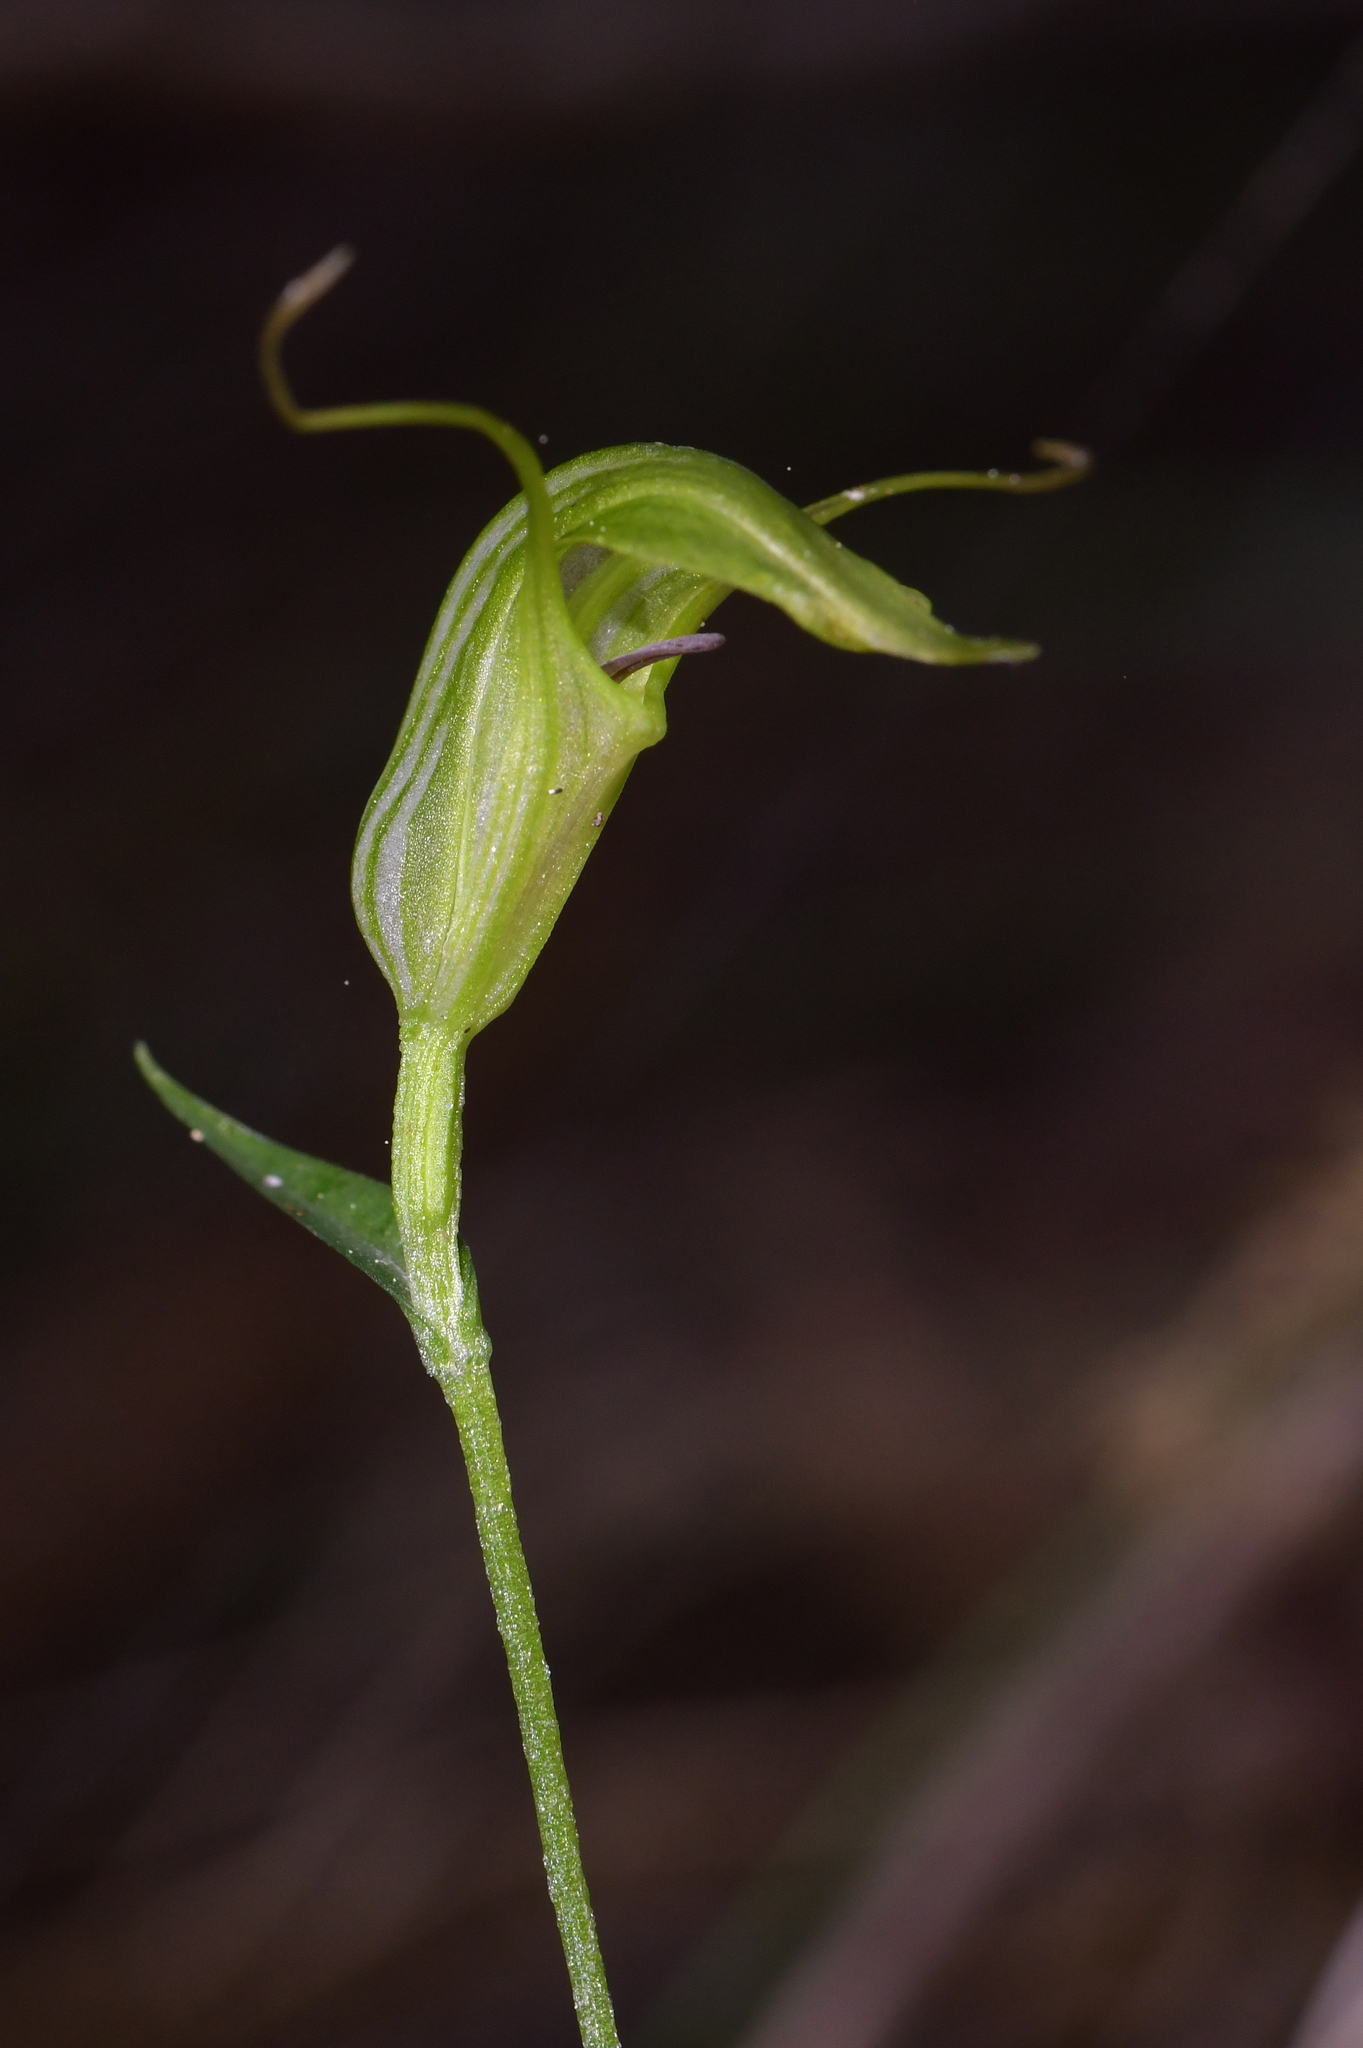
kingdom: Plantae
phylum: Tracheophyta
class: Liliopsida
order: Asparagales
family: Orchidaceae
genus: Pterostylis
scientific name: Pterostylis trullifolia
